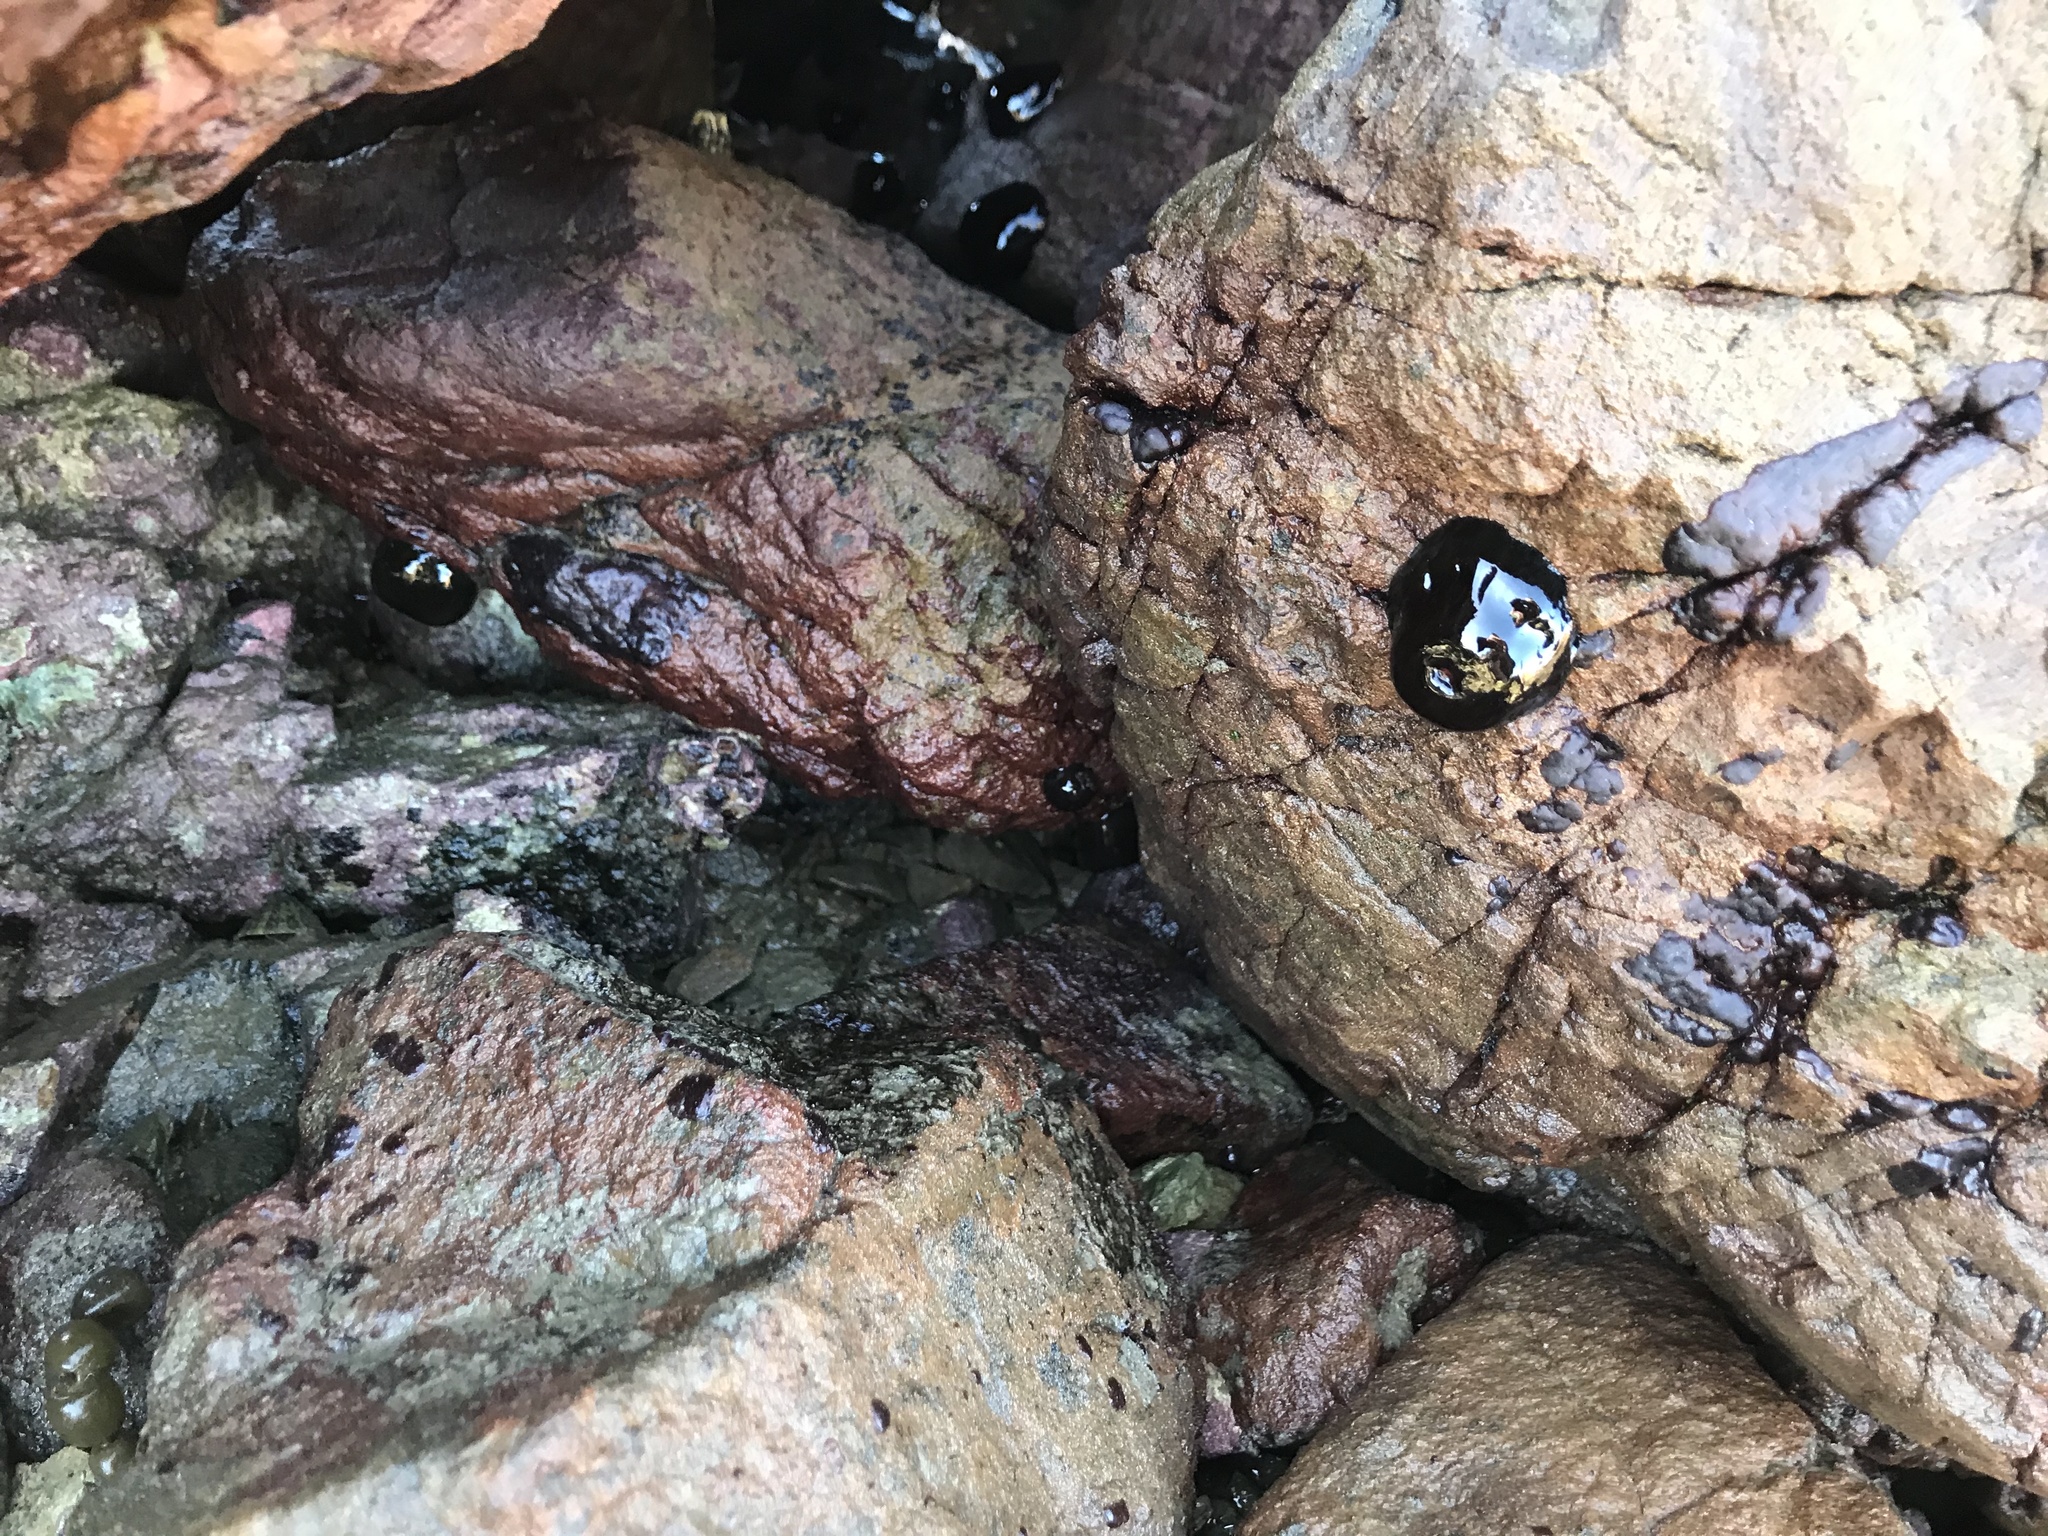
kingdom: Animalia
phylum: Cnidaria
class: Anthozoa
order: Actiniaria
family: Actiniidae
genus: Actinia
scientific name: Actinia tenebrosa
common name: Waratah anemone
